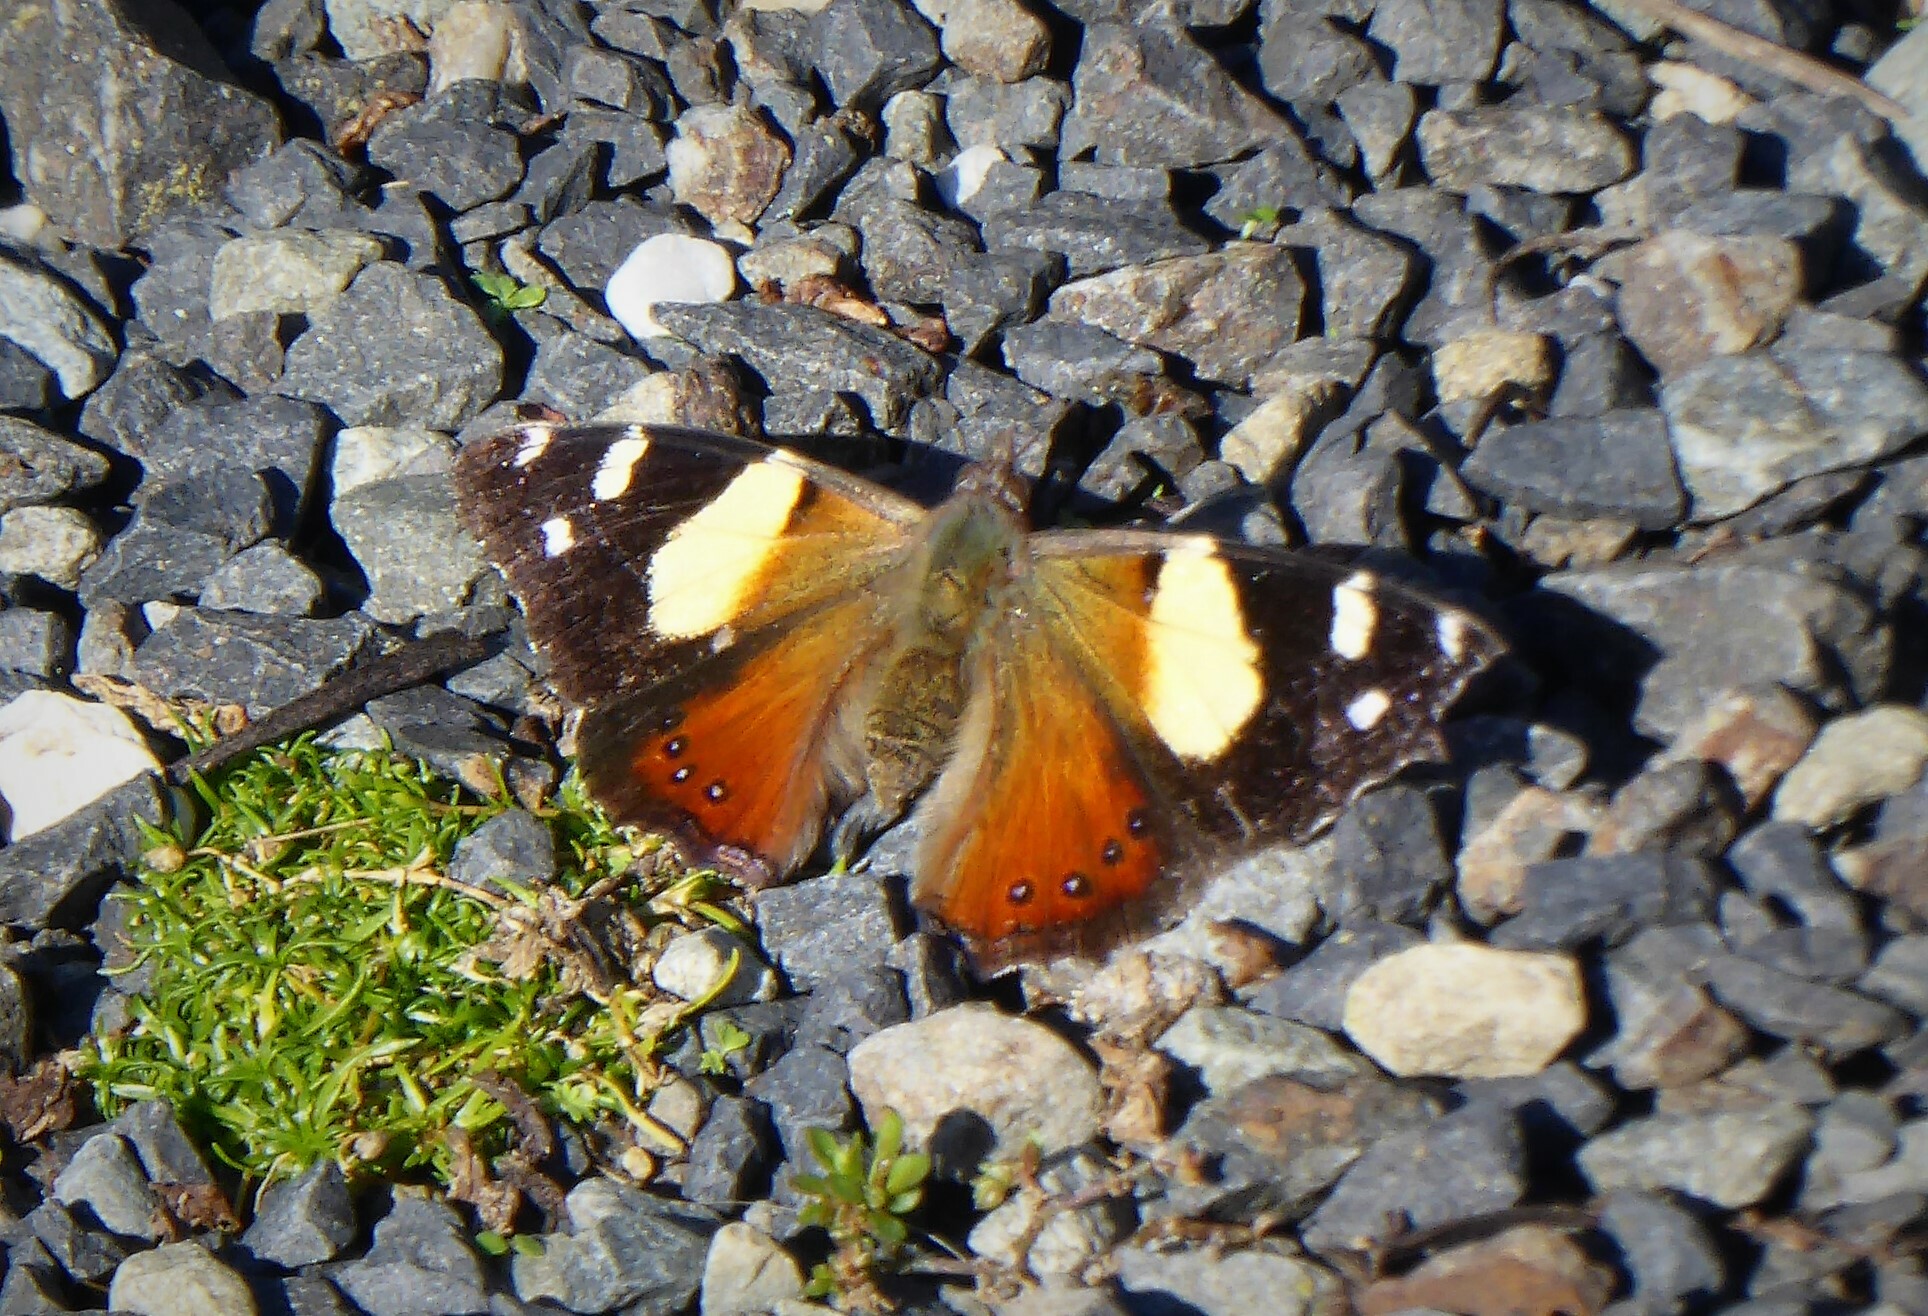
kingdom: Animalia
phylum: Arthropoda
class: Insecta
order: Lepidoptera
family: Nymphalidae
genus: Vanessa
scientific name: Vanessa itea
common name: Yellow admiral
